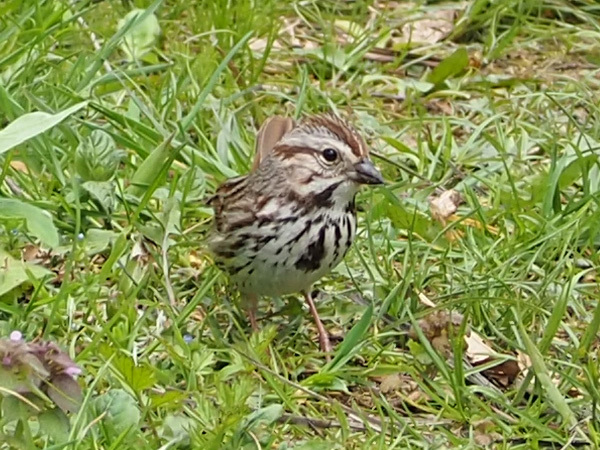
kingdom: Animalia
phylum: Chordata
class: Aves
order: Passeriformes
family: Passerellidae
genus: Melospiza
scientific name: Melospiza melodia
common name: Song sparrow
